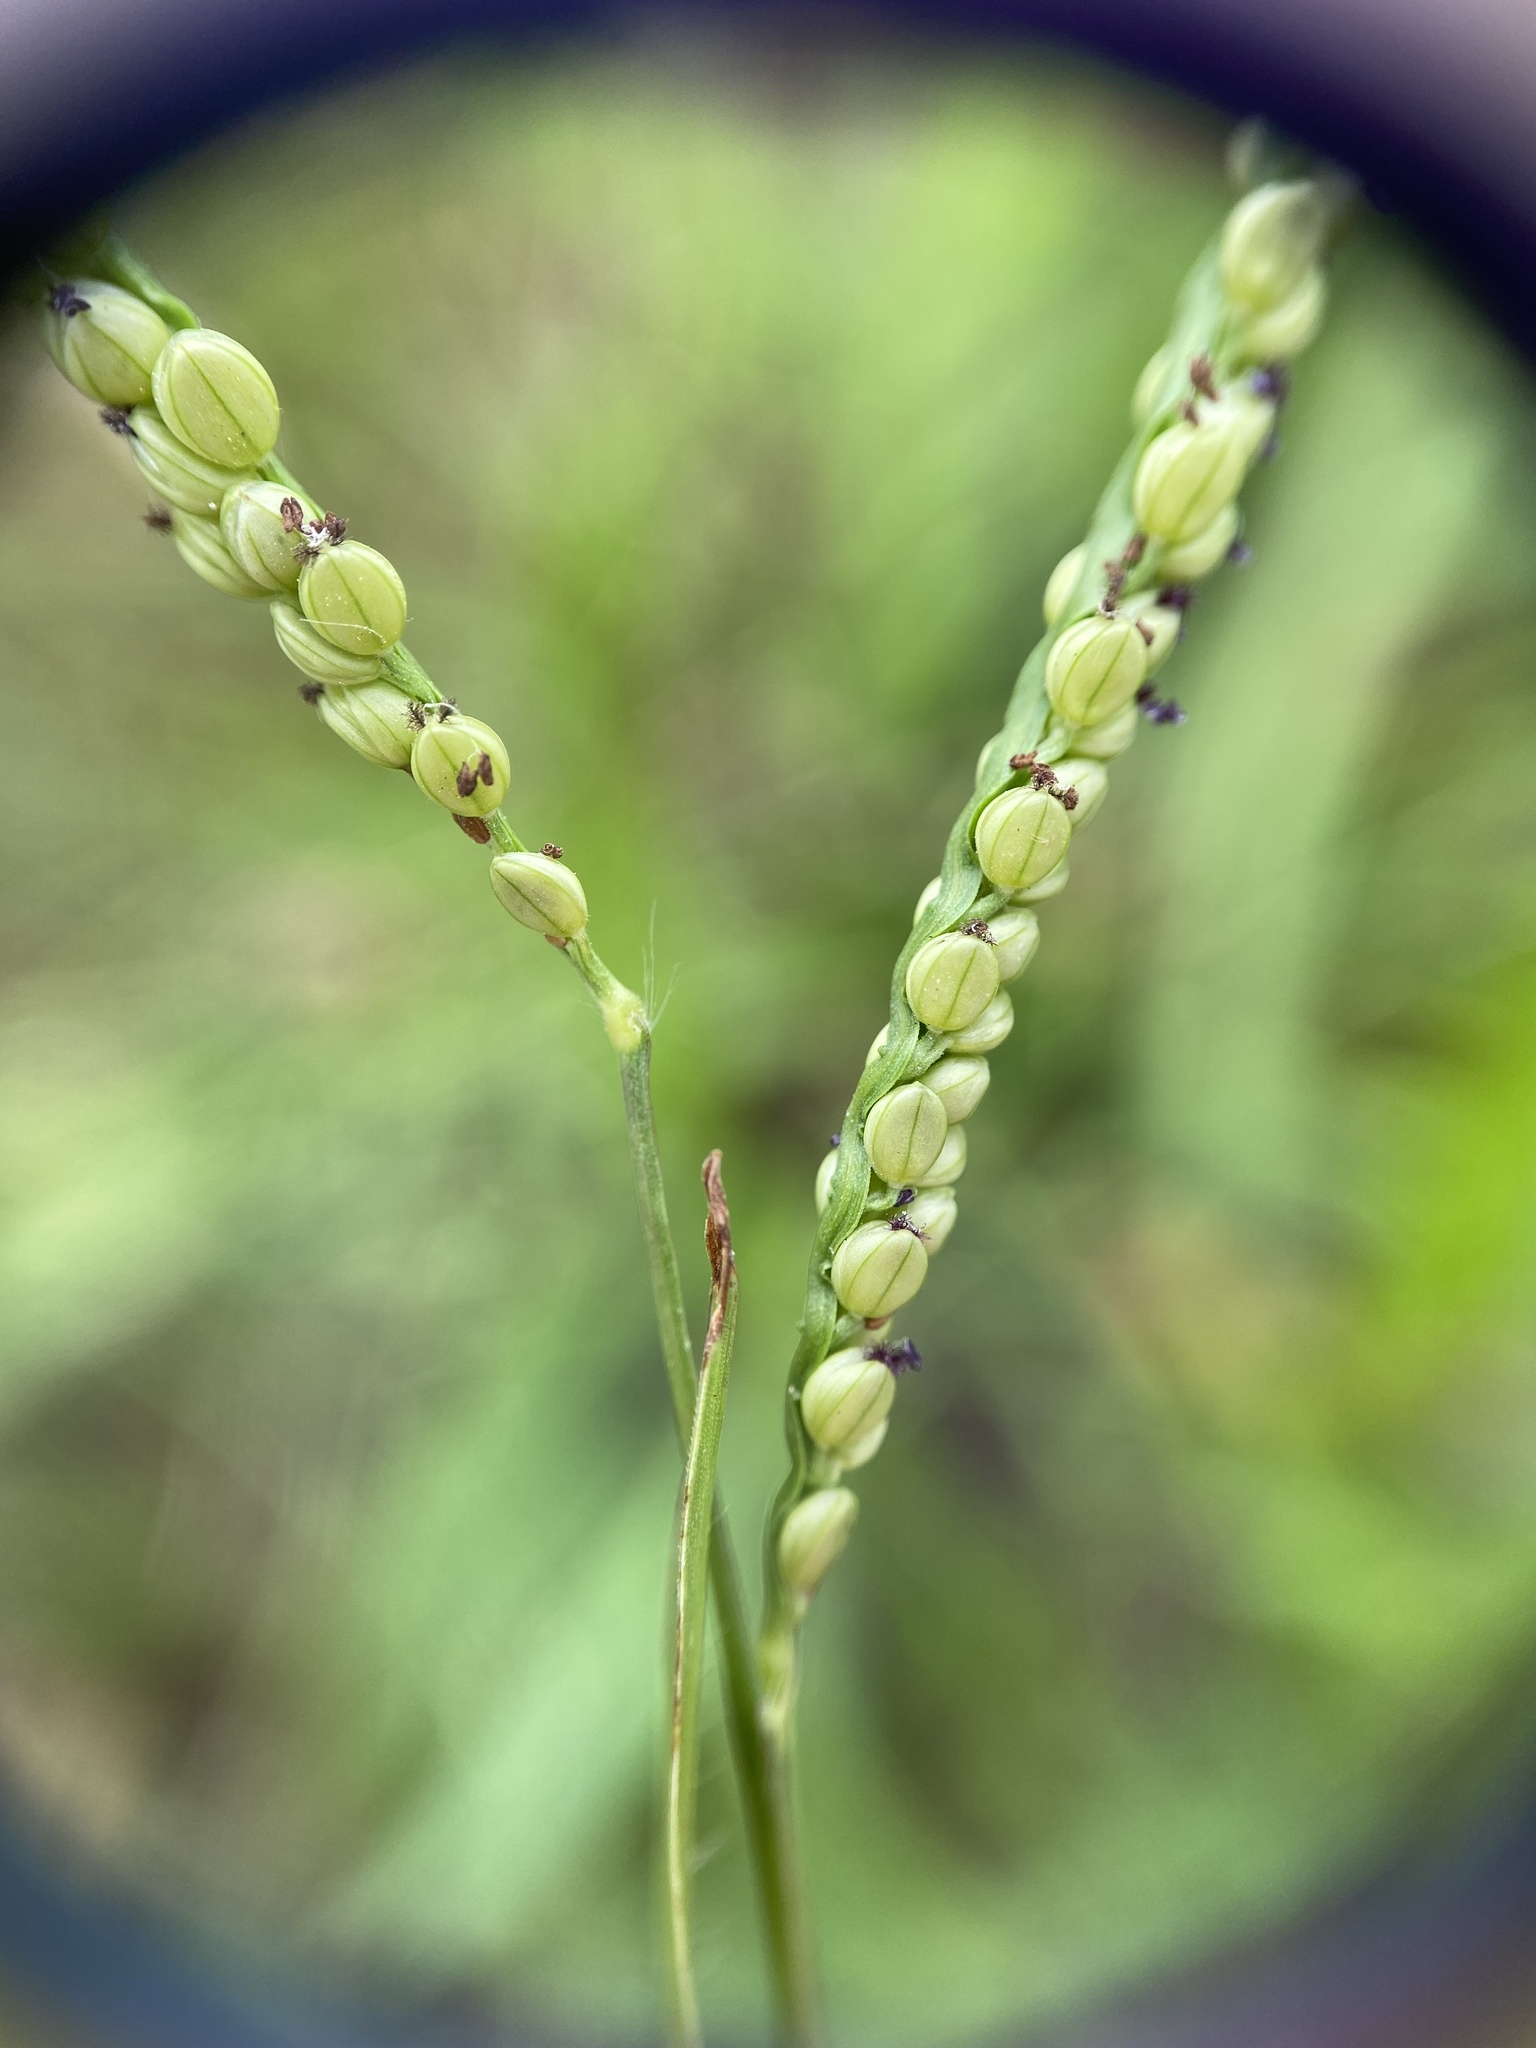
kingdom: Plantae
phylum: Tracheophyta
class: Liliopsida
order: Poales
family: Poaceae
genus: Paspalum
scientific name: Paspalum setaceum
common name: Slender paspalum
